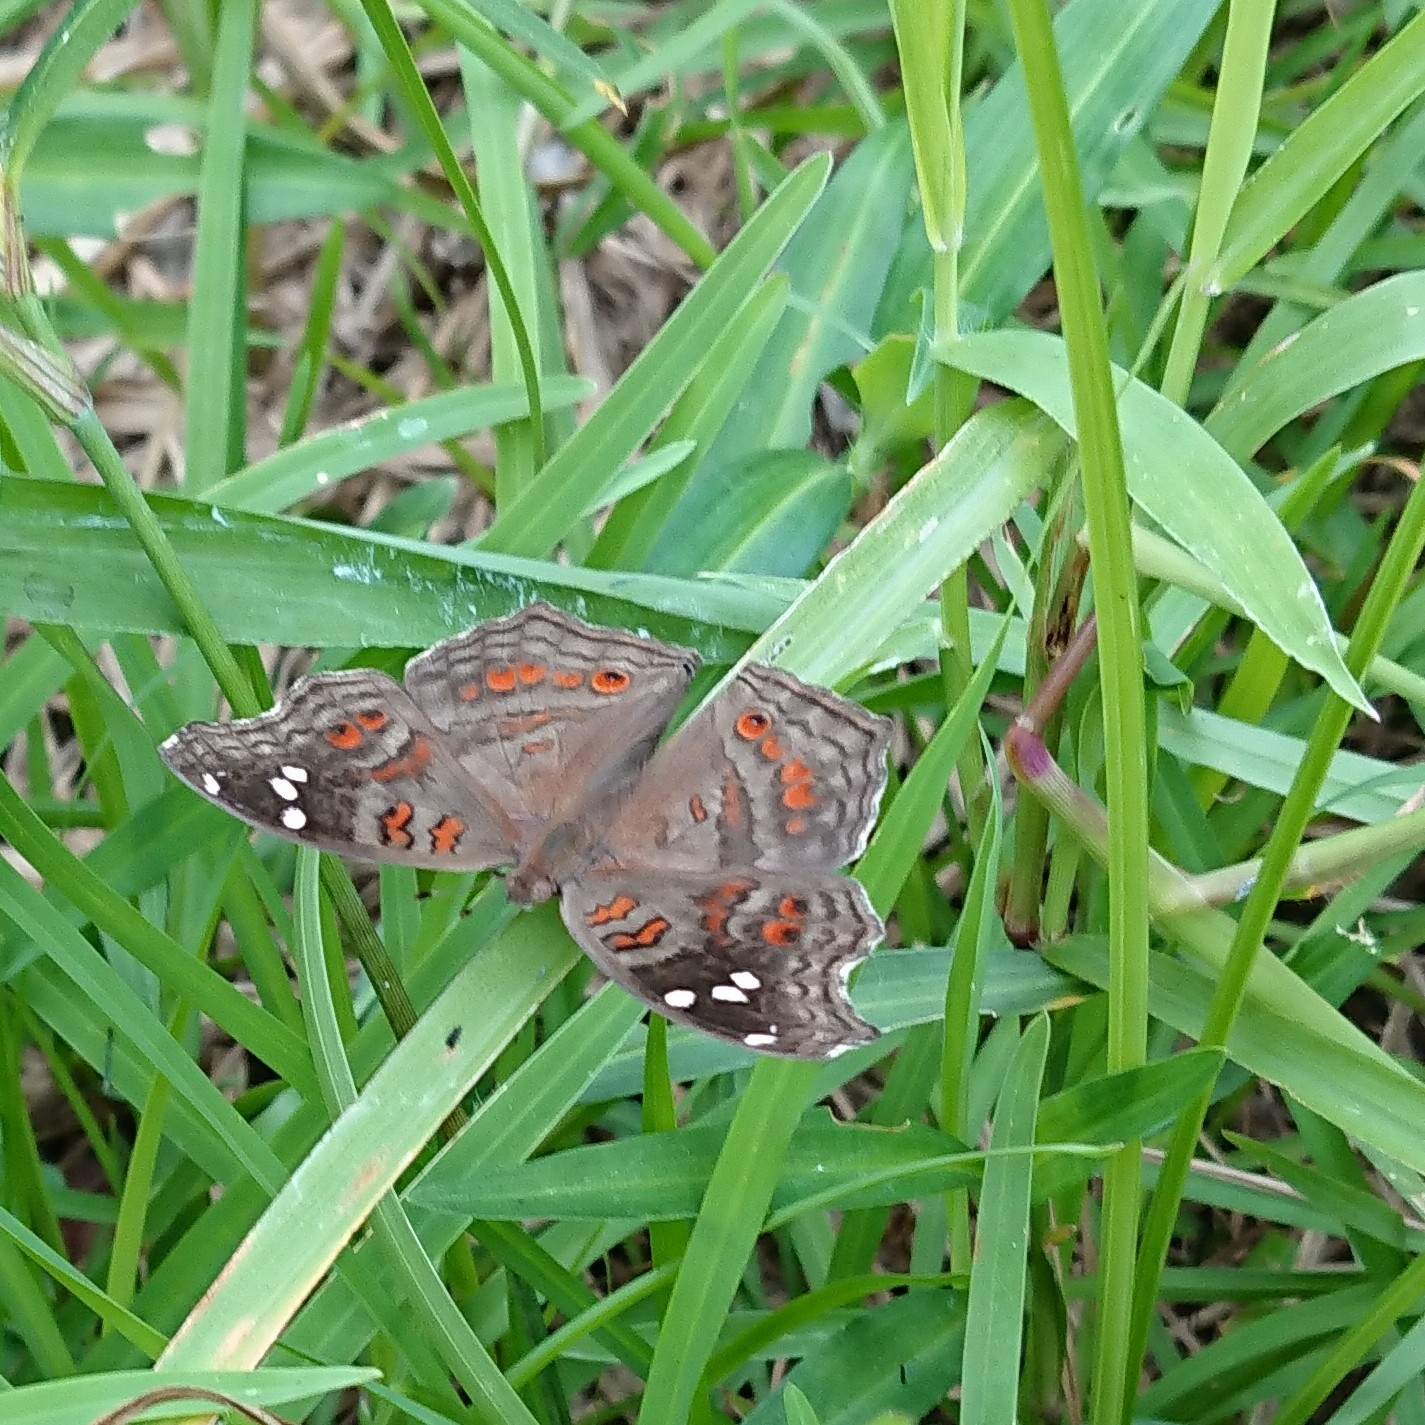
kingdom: Animalia
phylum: Arthropoda
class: Insecta
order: Lepidoptera
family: Nymphalidae
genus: Junonia
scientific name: Junonia natalica
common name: Brown pansy
